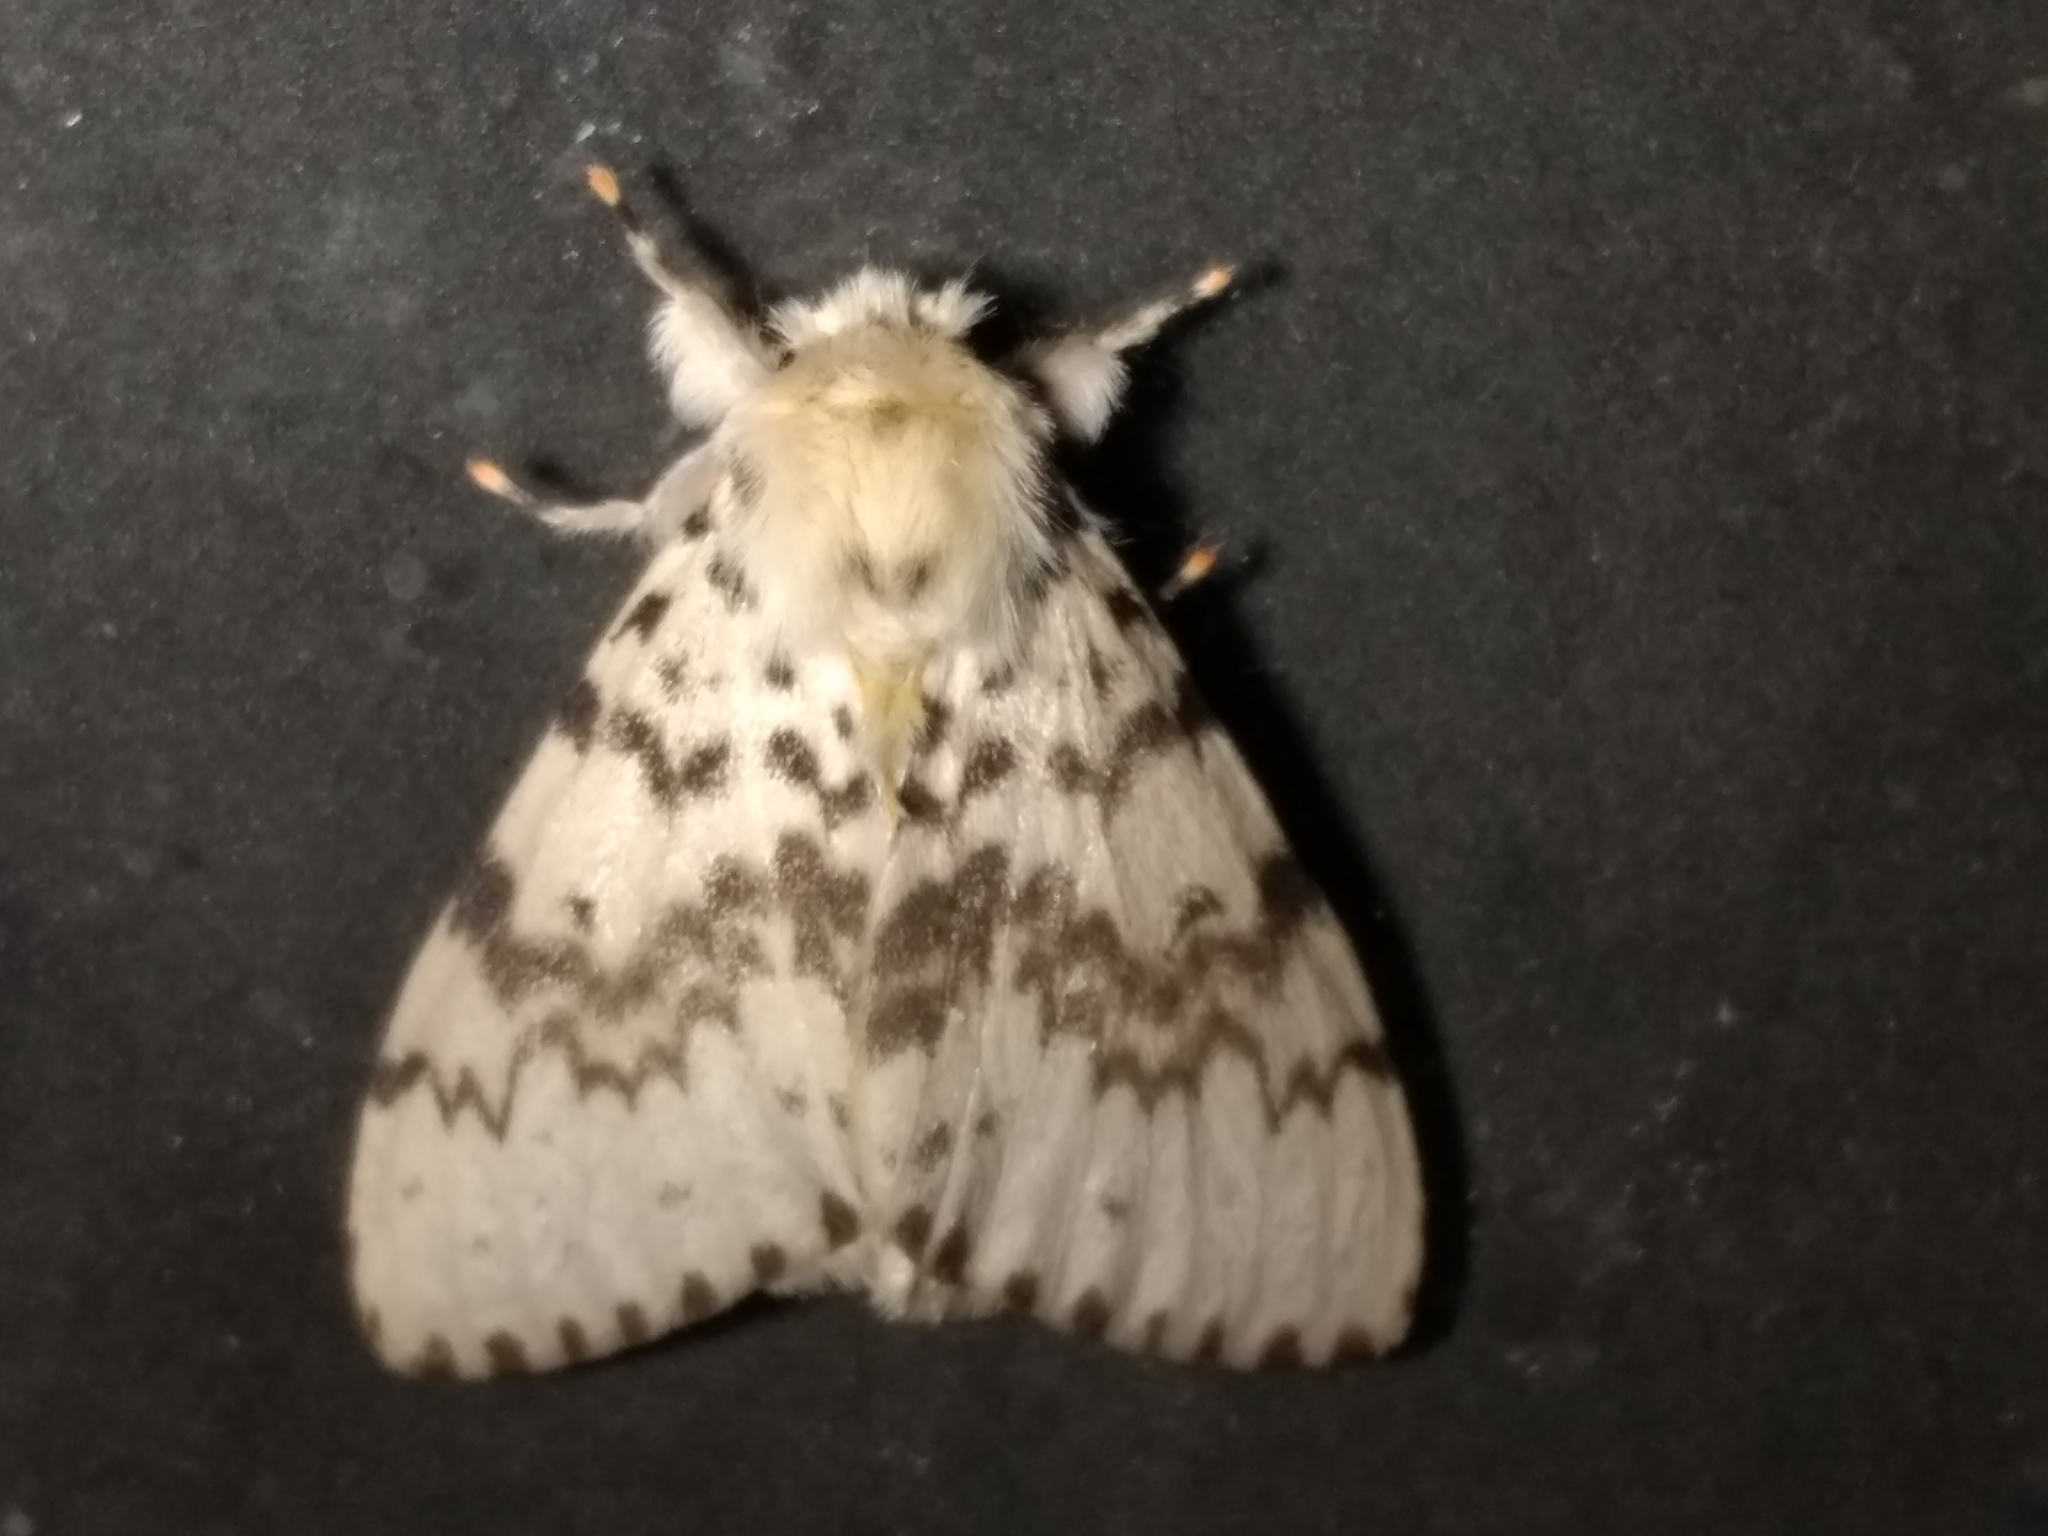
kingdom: Animalia
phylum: Arthropoda
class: Insecta
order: Lepidoptera
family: Erebidae
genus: Lymantria
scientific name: Lymantria antennata
